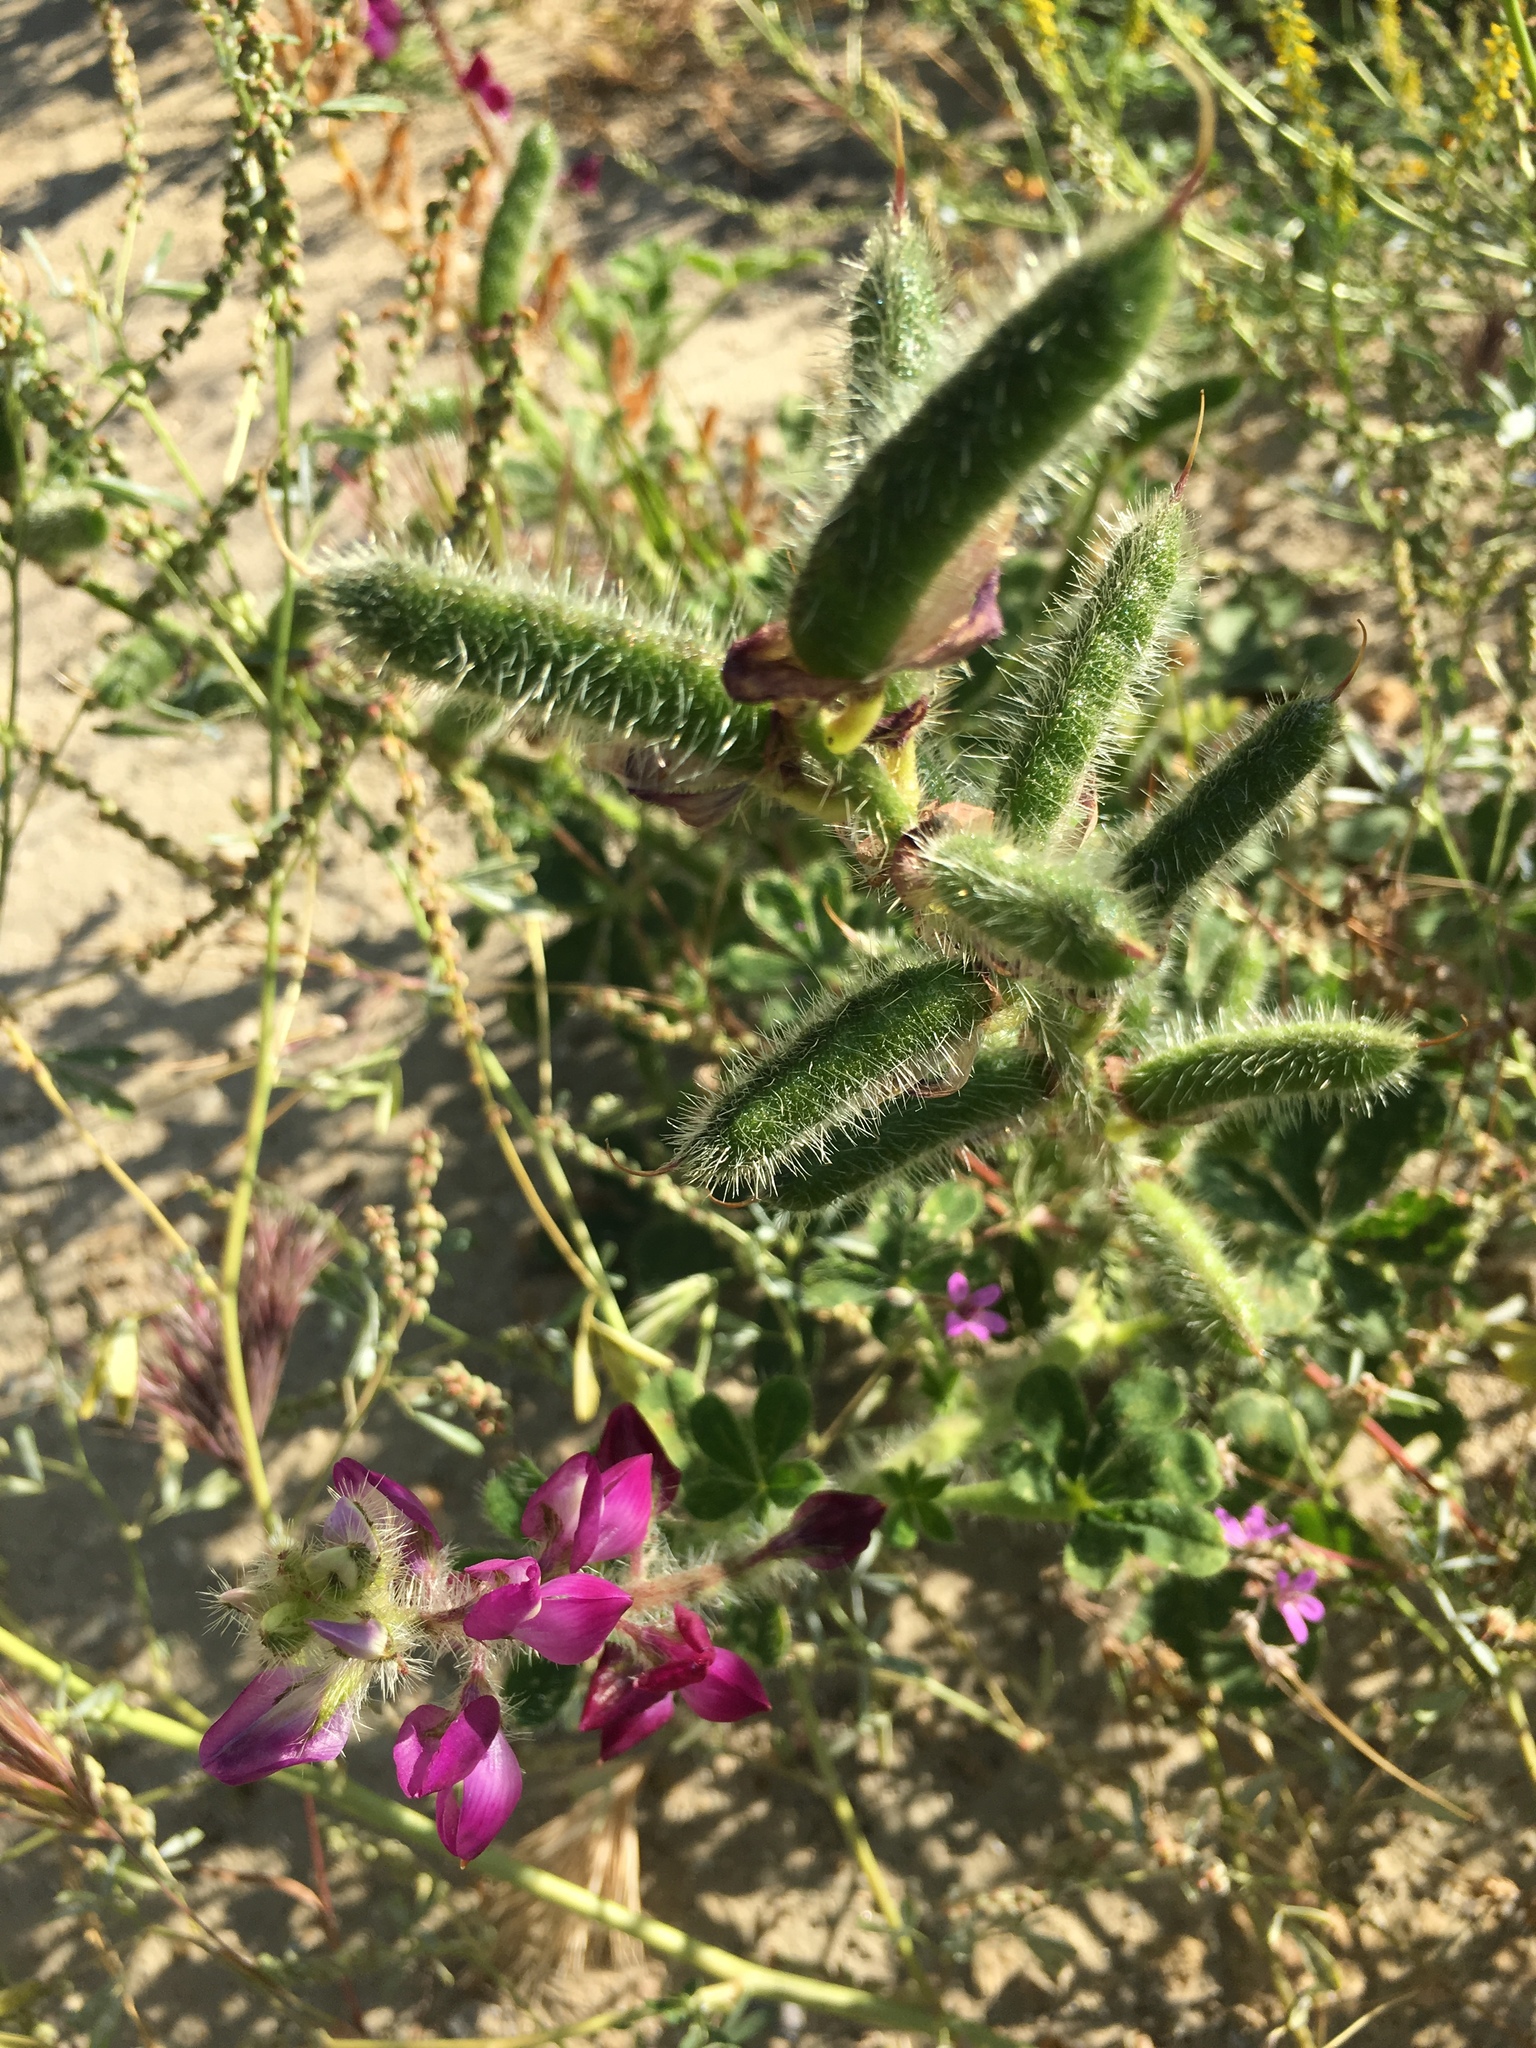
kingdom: Plantae
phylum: Tracheophyta
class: Magnoliopsida
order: Fabales
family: Fabaceae
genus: Lupinus
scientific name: Lupinus hirsutissimus
